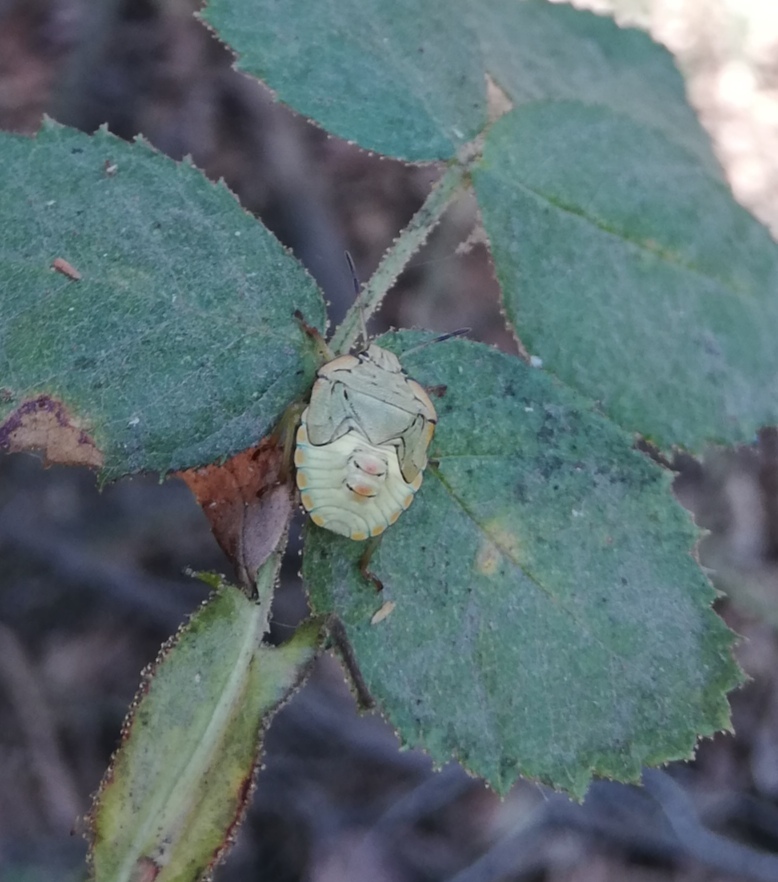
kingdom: Animalia
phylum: Arthropoda
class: Insecta
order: Hemiptera
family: Pentatomidae
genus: Acledra
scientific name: Acledra
